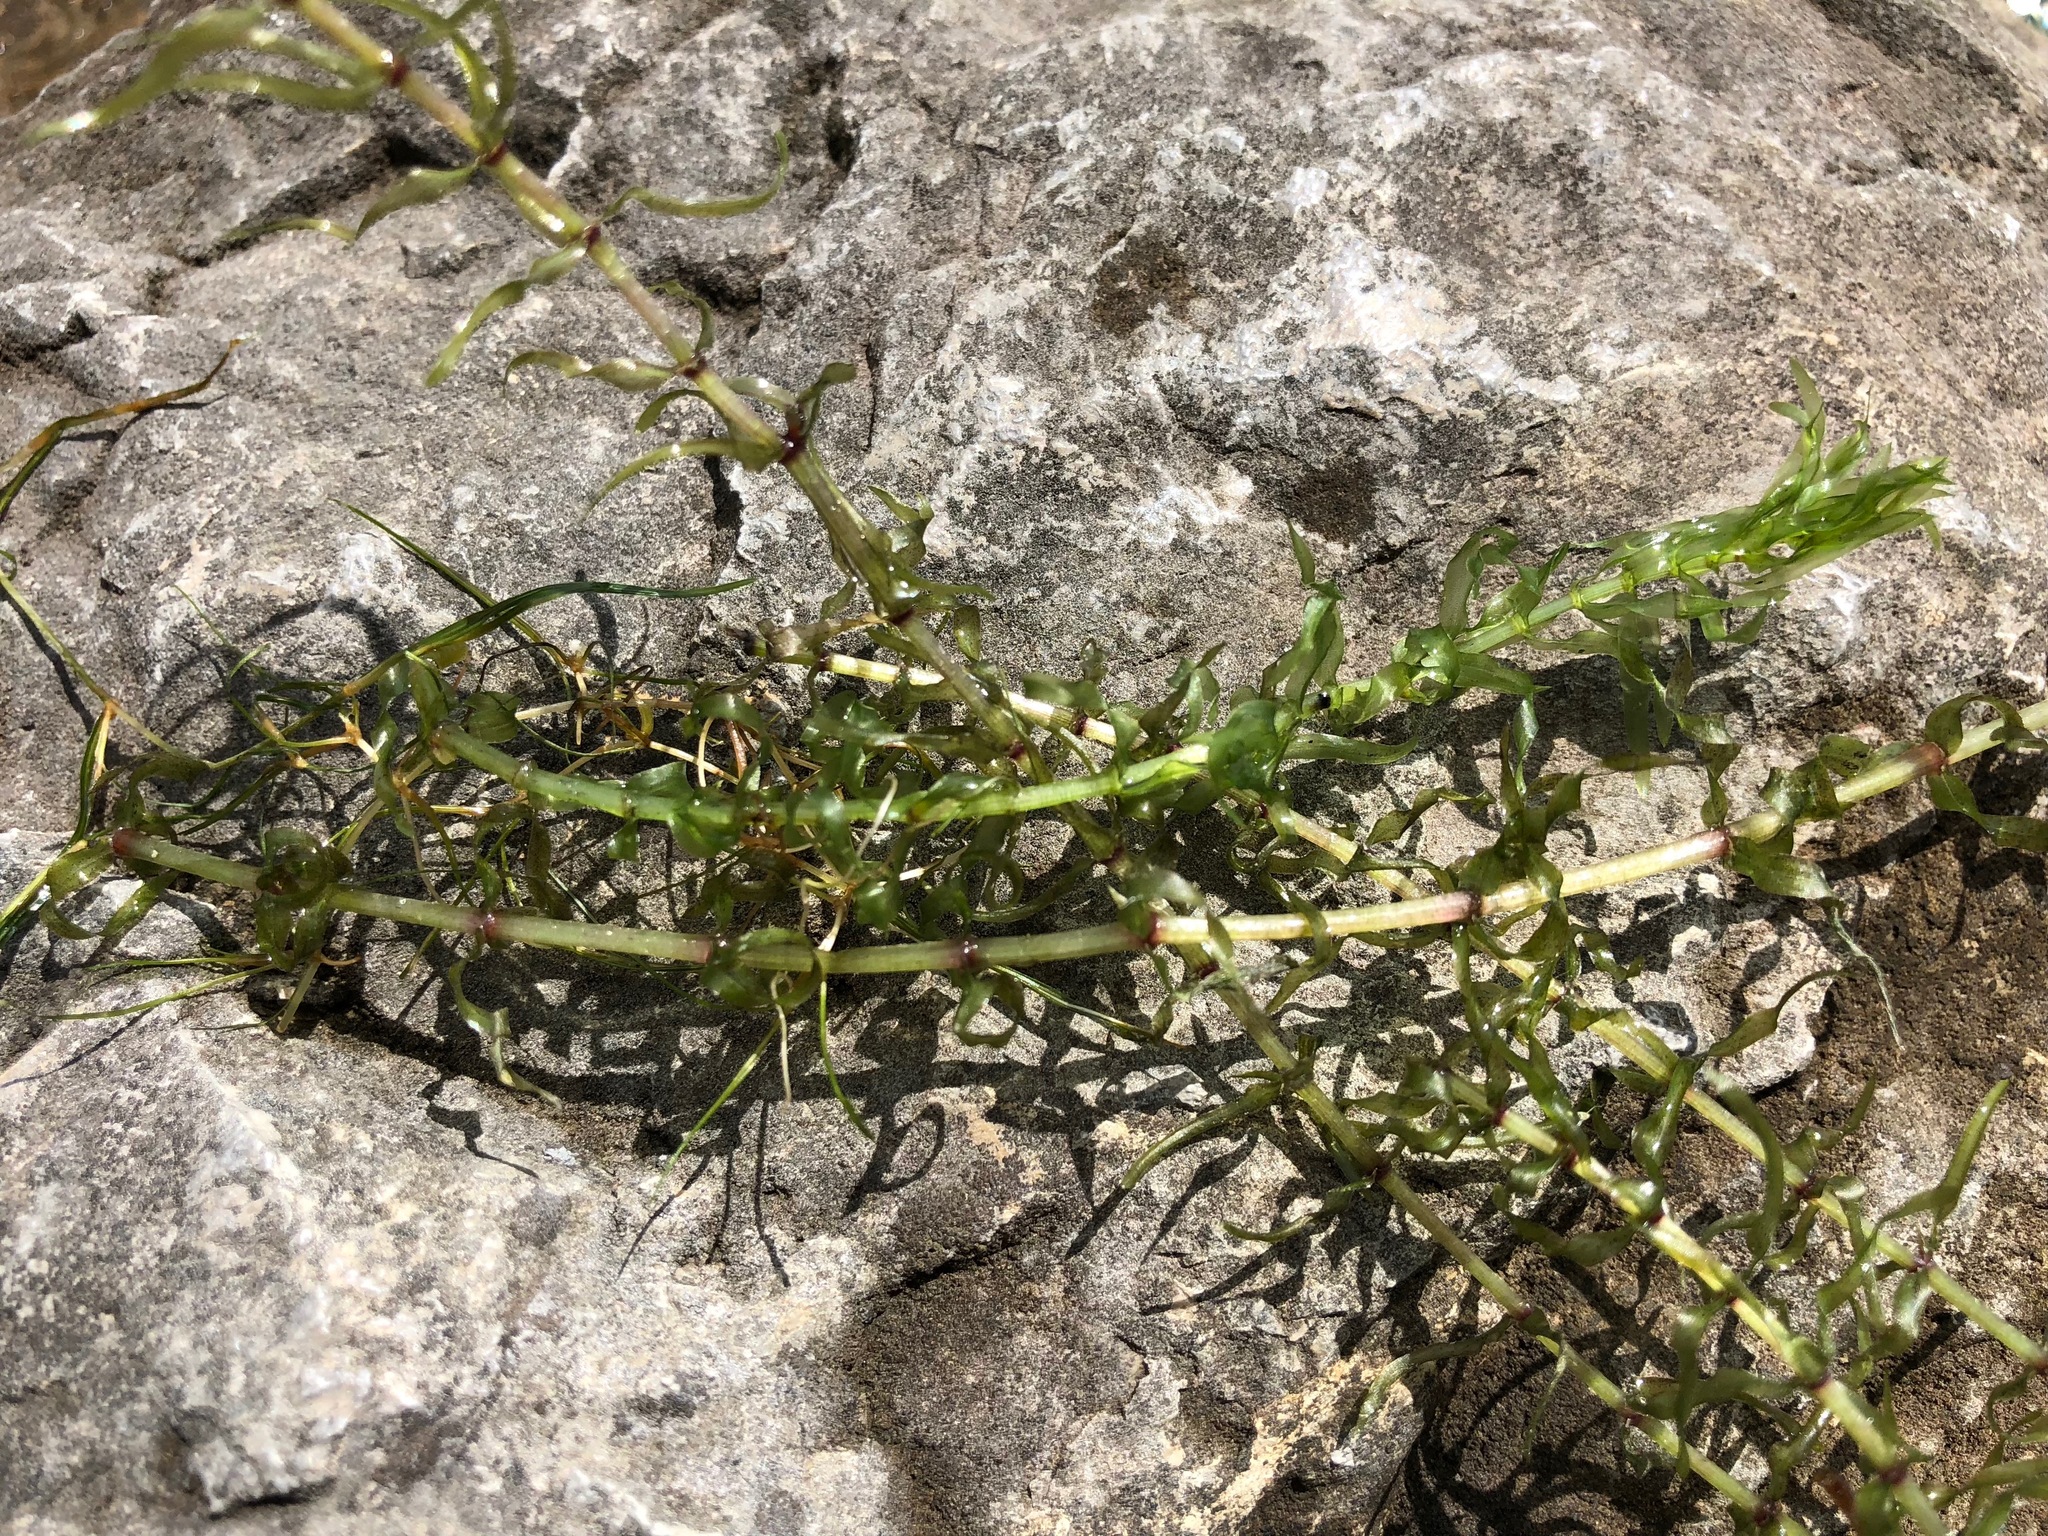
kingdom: Plantae
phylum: Tracheophyta
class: Liliopsida
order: Alismatales
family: Hydrocharitaceae
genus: Elodea
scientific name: Elodea nuttallii
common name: Nuttall's waterweed
